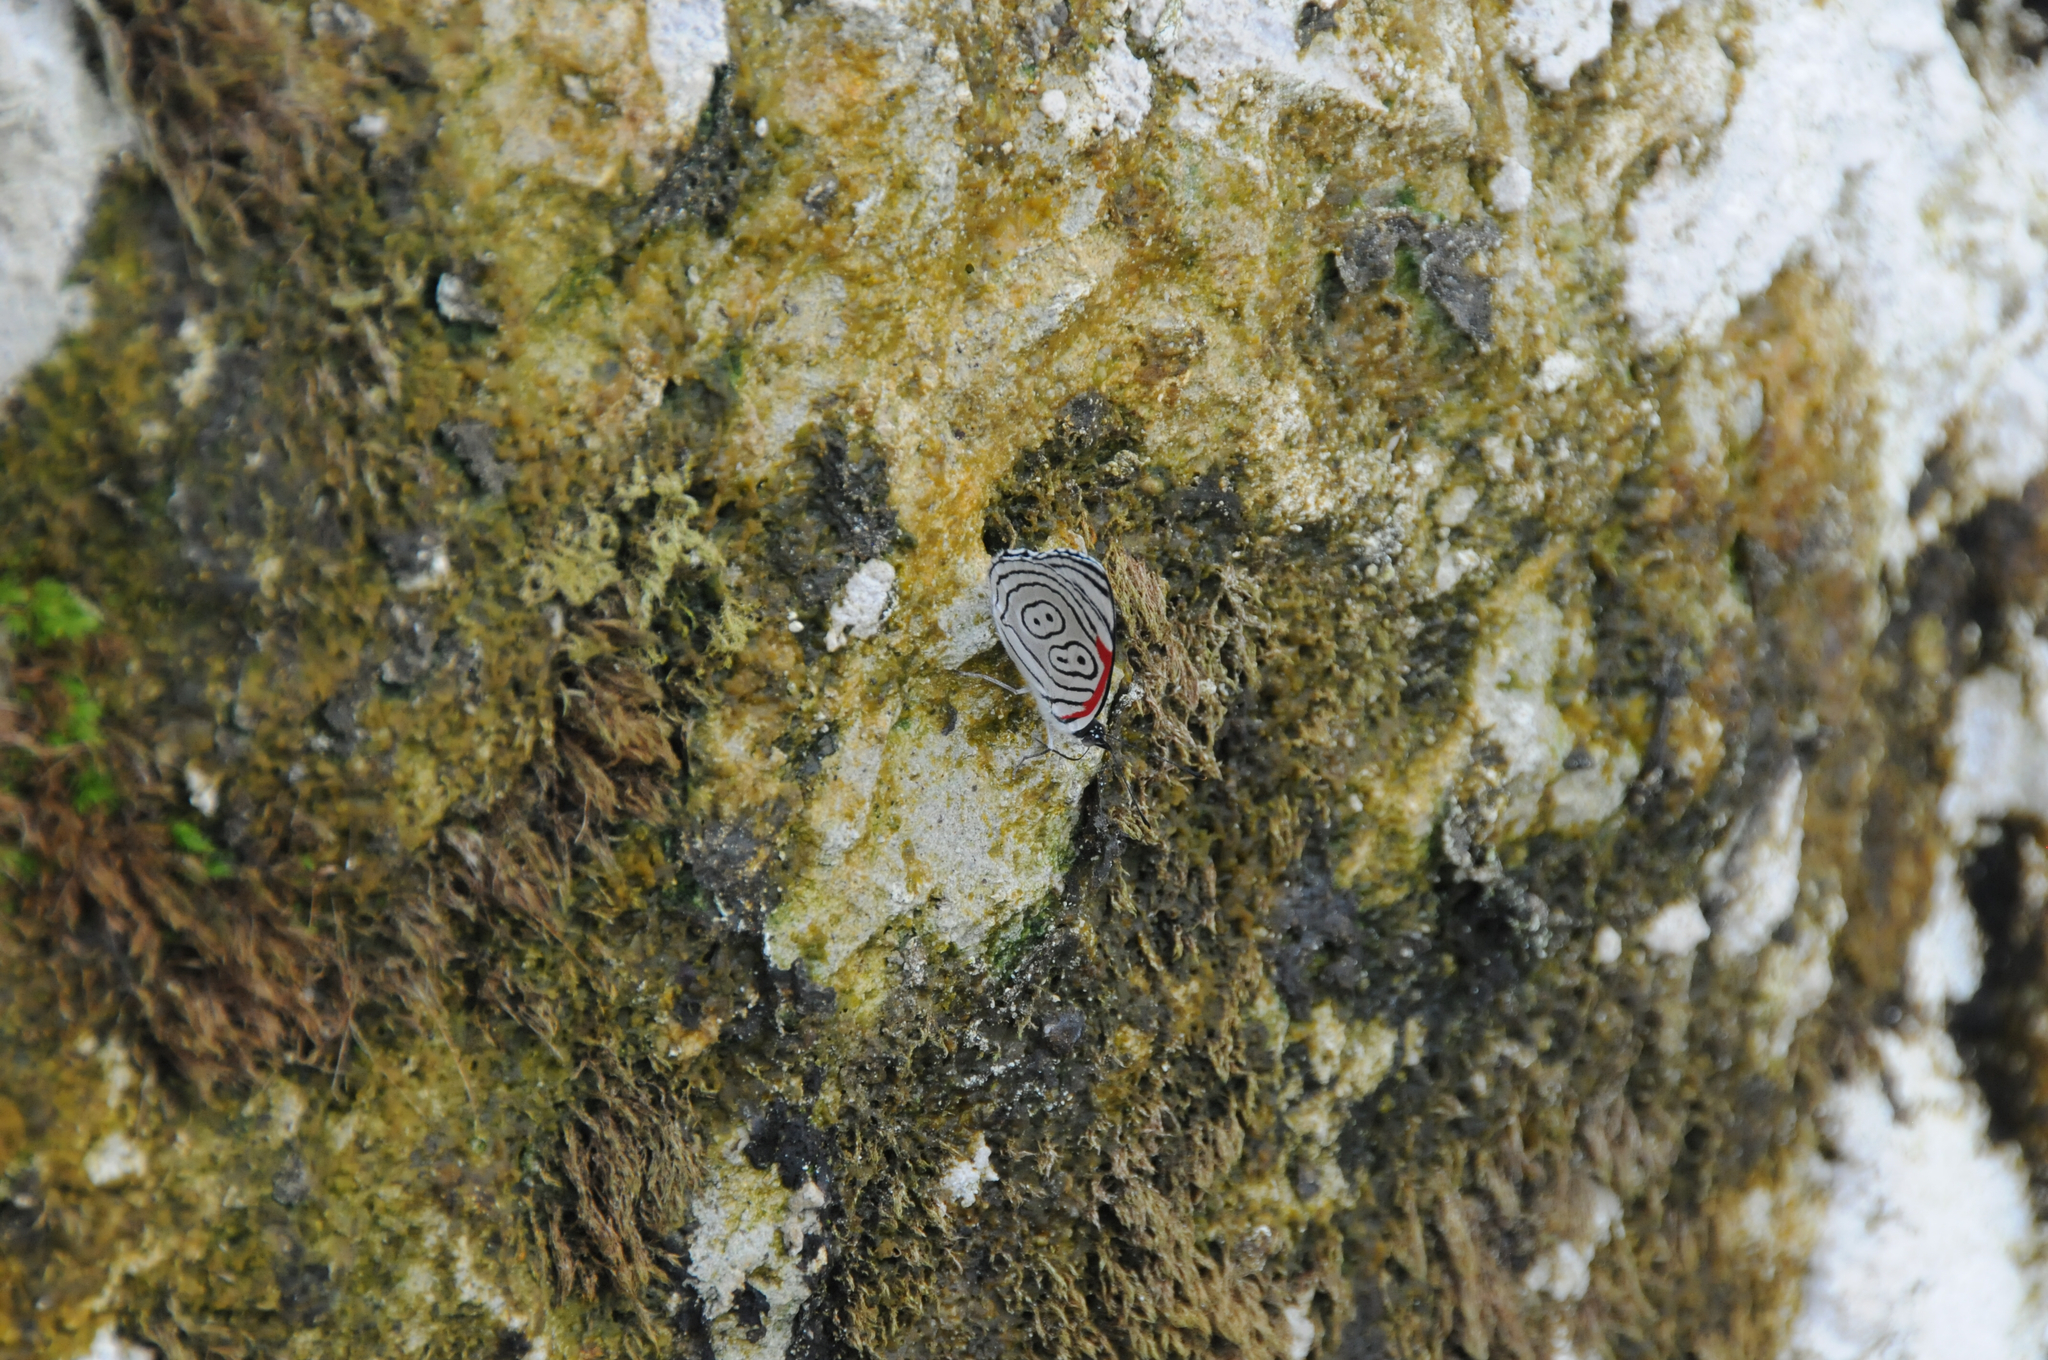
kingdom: Animalia
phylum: Arthropoda
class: Insecta
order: Lepidoptera
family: Nymphalidae
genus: Diaethria
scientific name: Diaethria anna
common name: Anna’s eighty-eight
